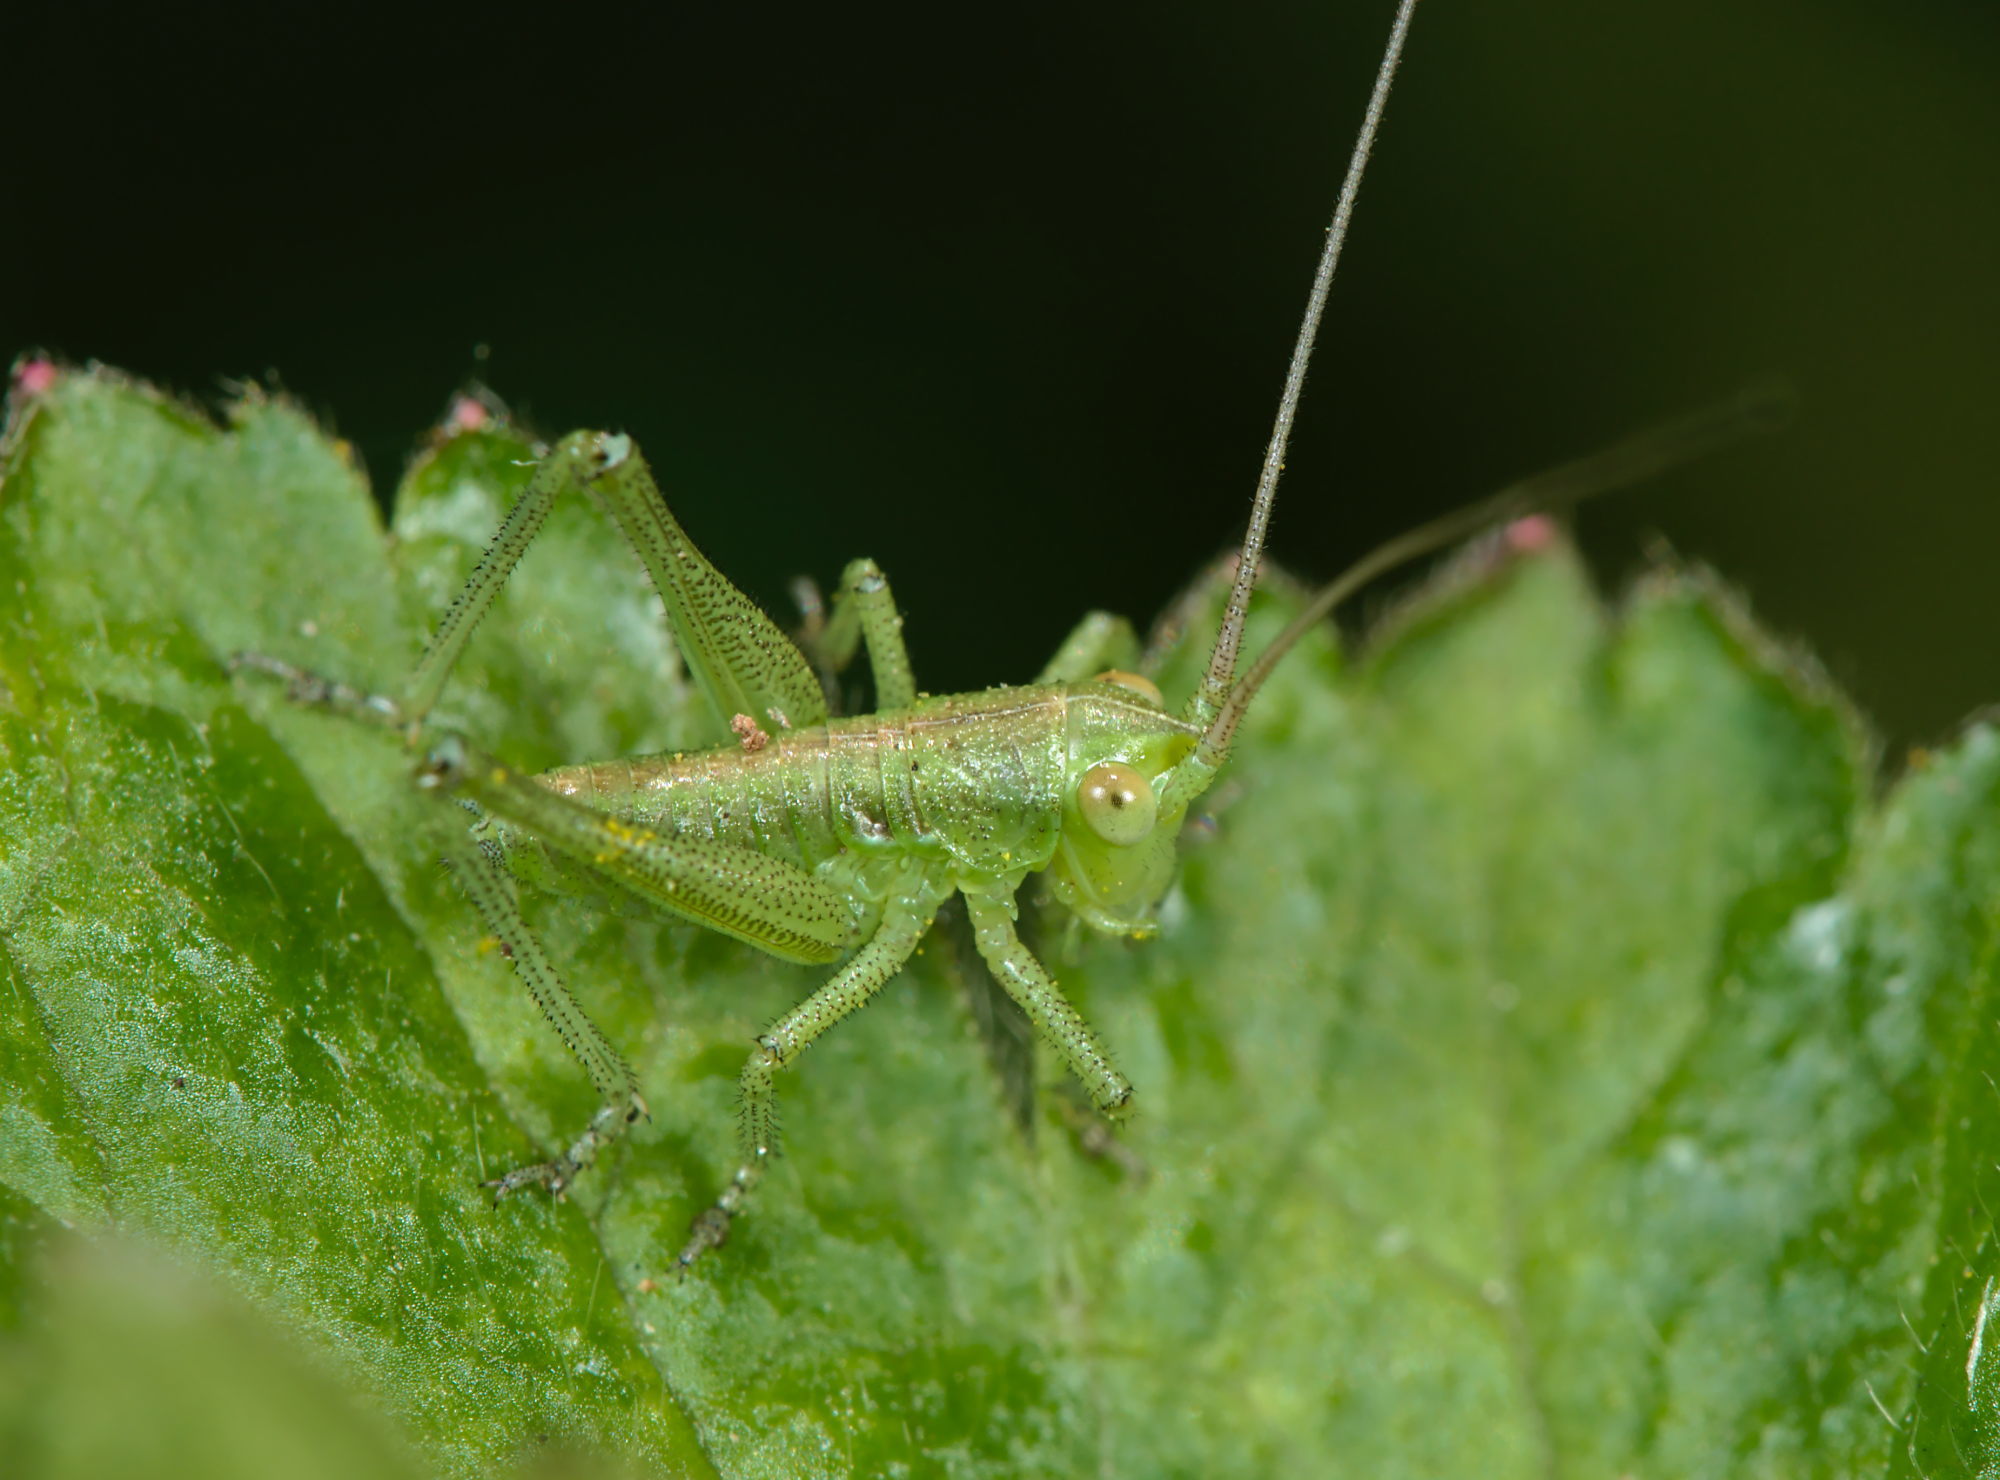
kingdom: Animalia
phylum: Arthropoda
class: Insecta
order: Orthoptera
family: Tettigoniidae
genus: Tettigonia
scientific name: Tettigonia viridissima
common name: Great green bush-cricket
